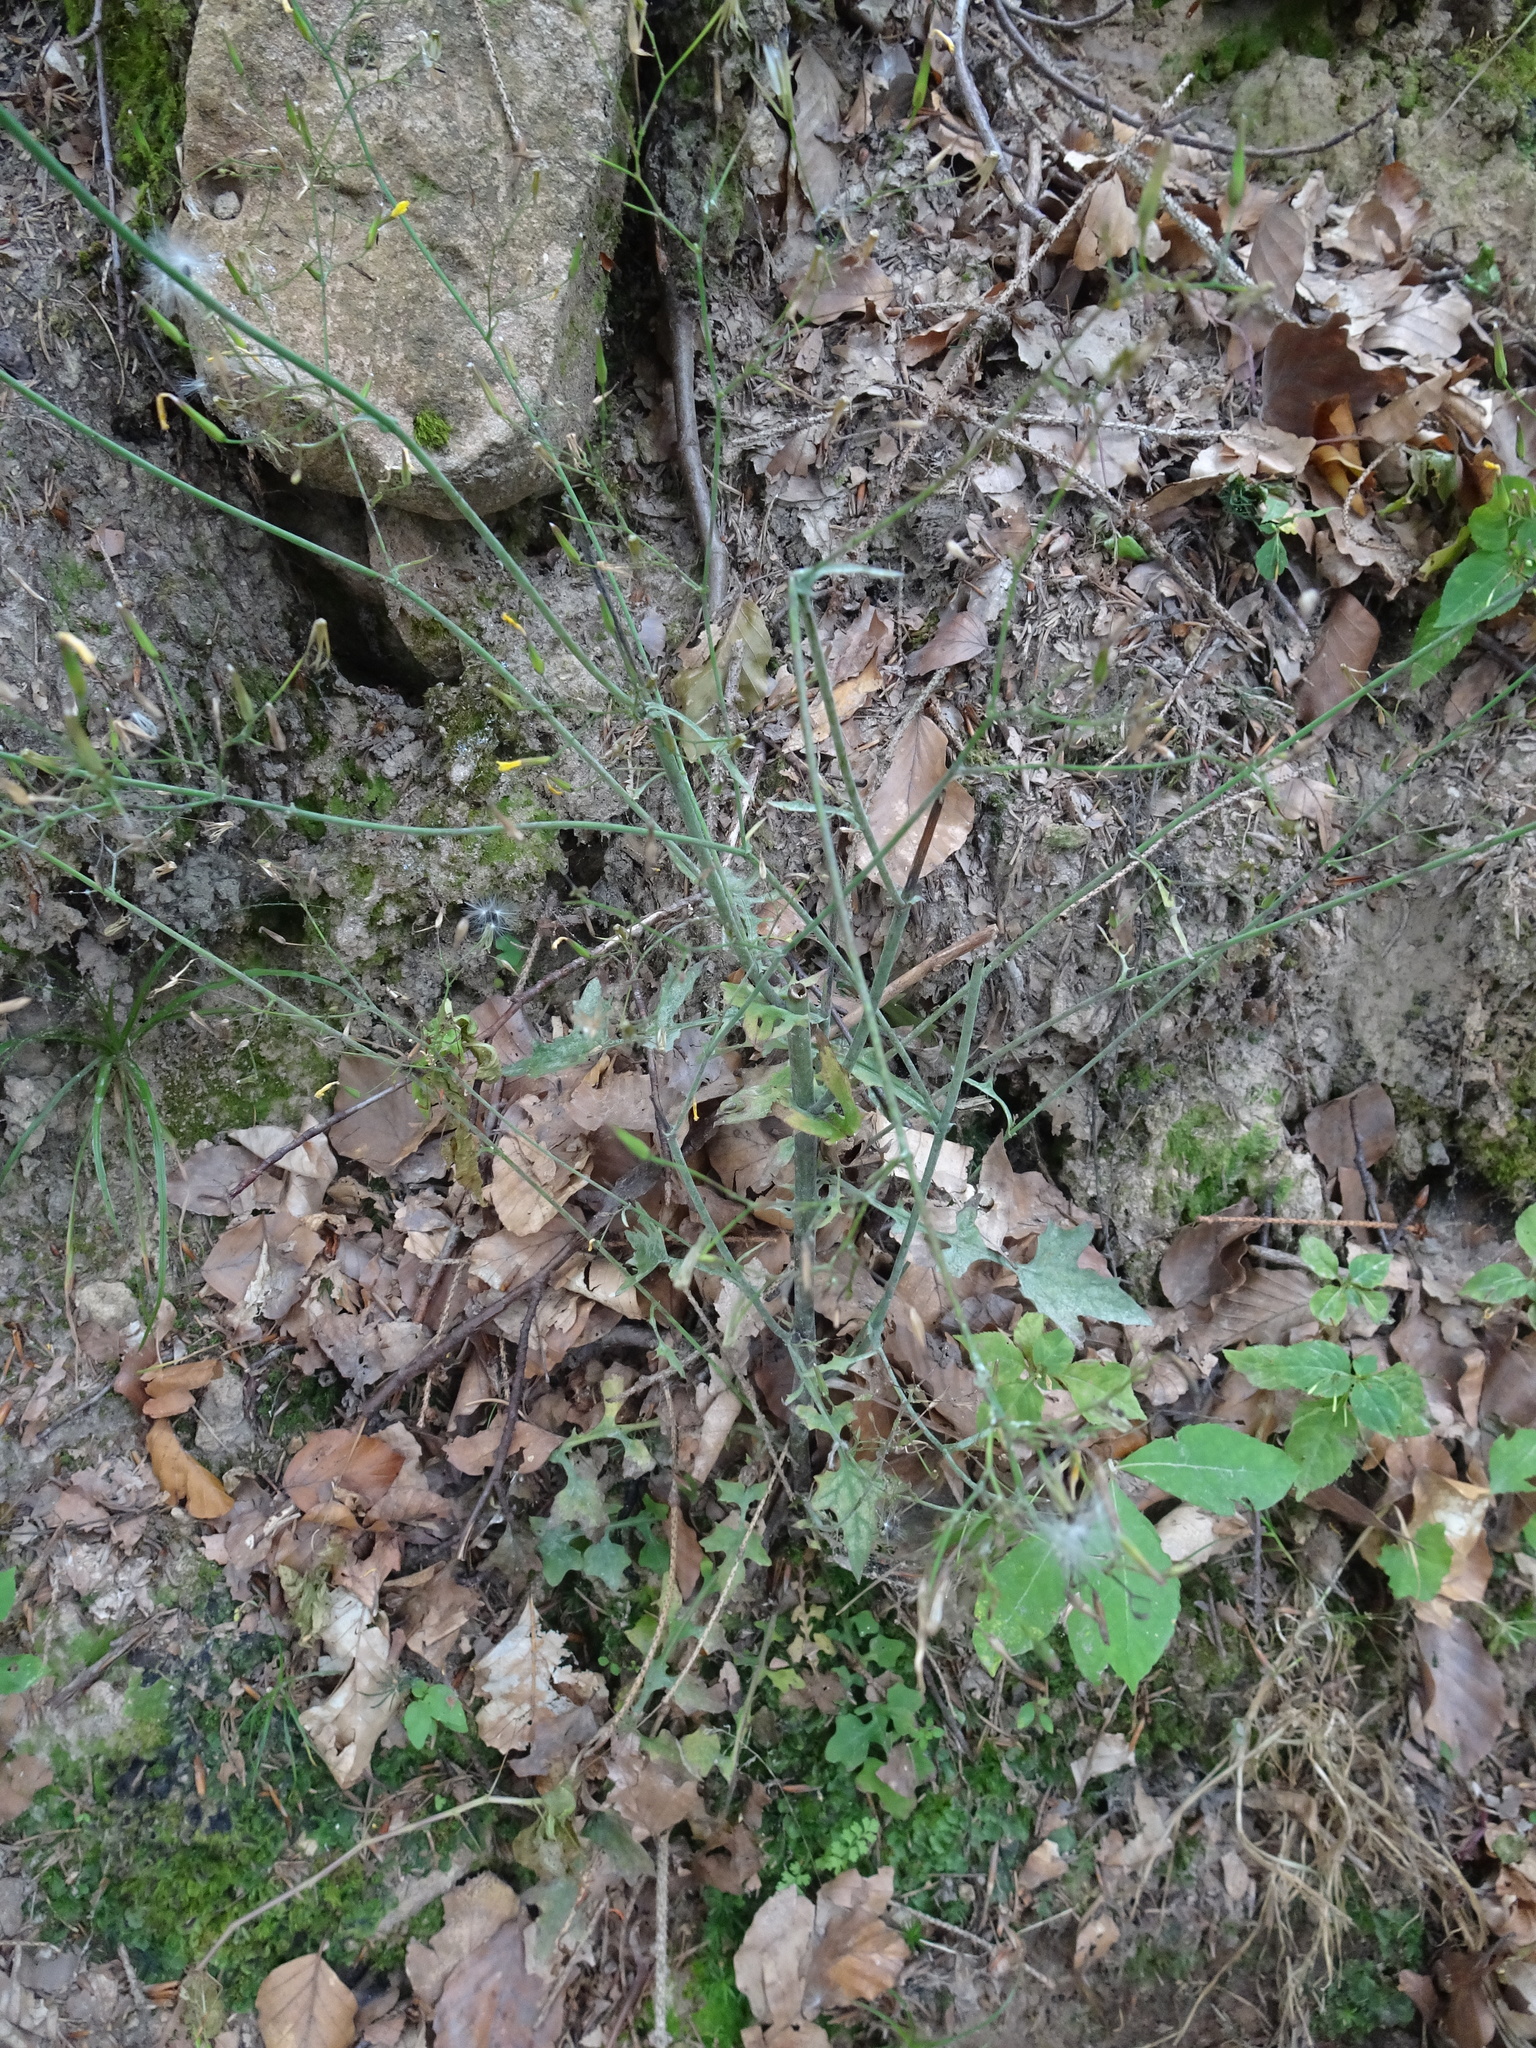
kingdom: Plantae
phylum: Tracheophyta
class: Magnoliopsida
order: Asterales
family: Asteraceae
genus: Mycelis
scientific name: Mycelis muralis
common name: Wall lettuce
